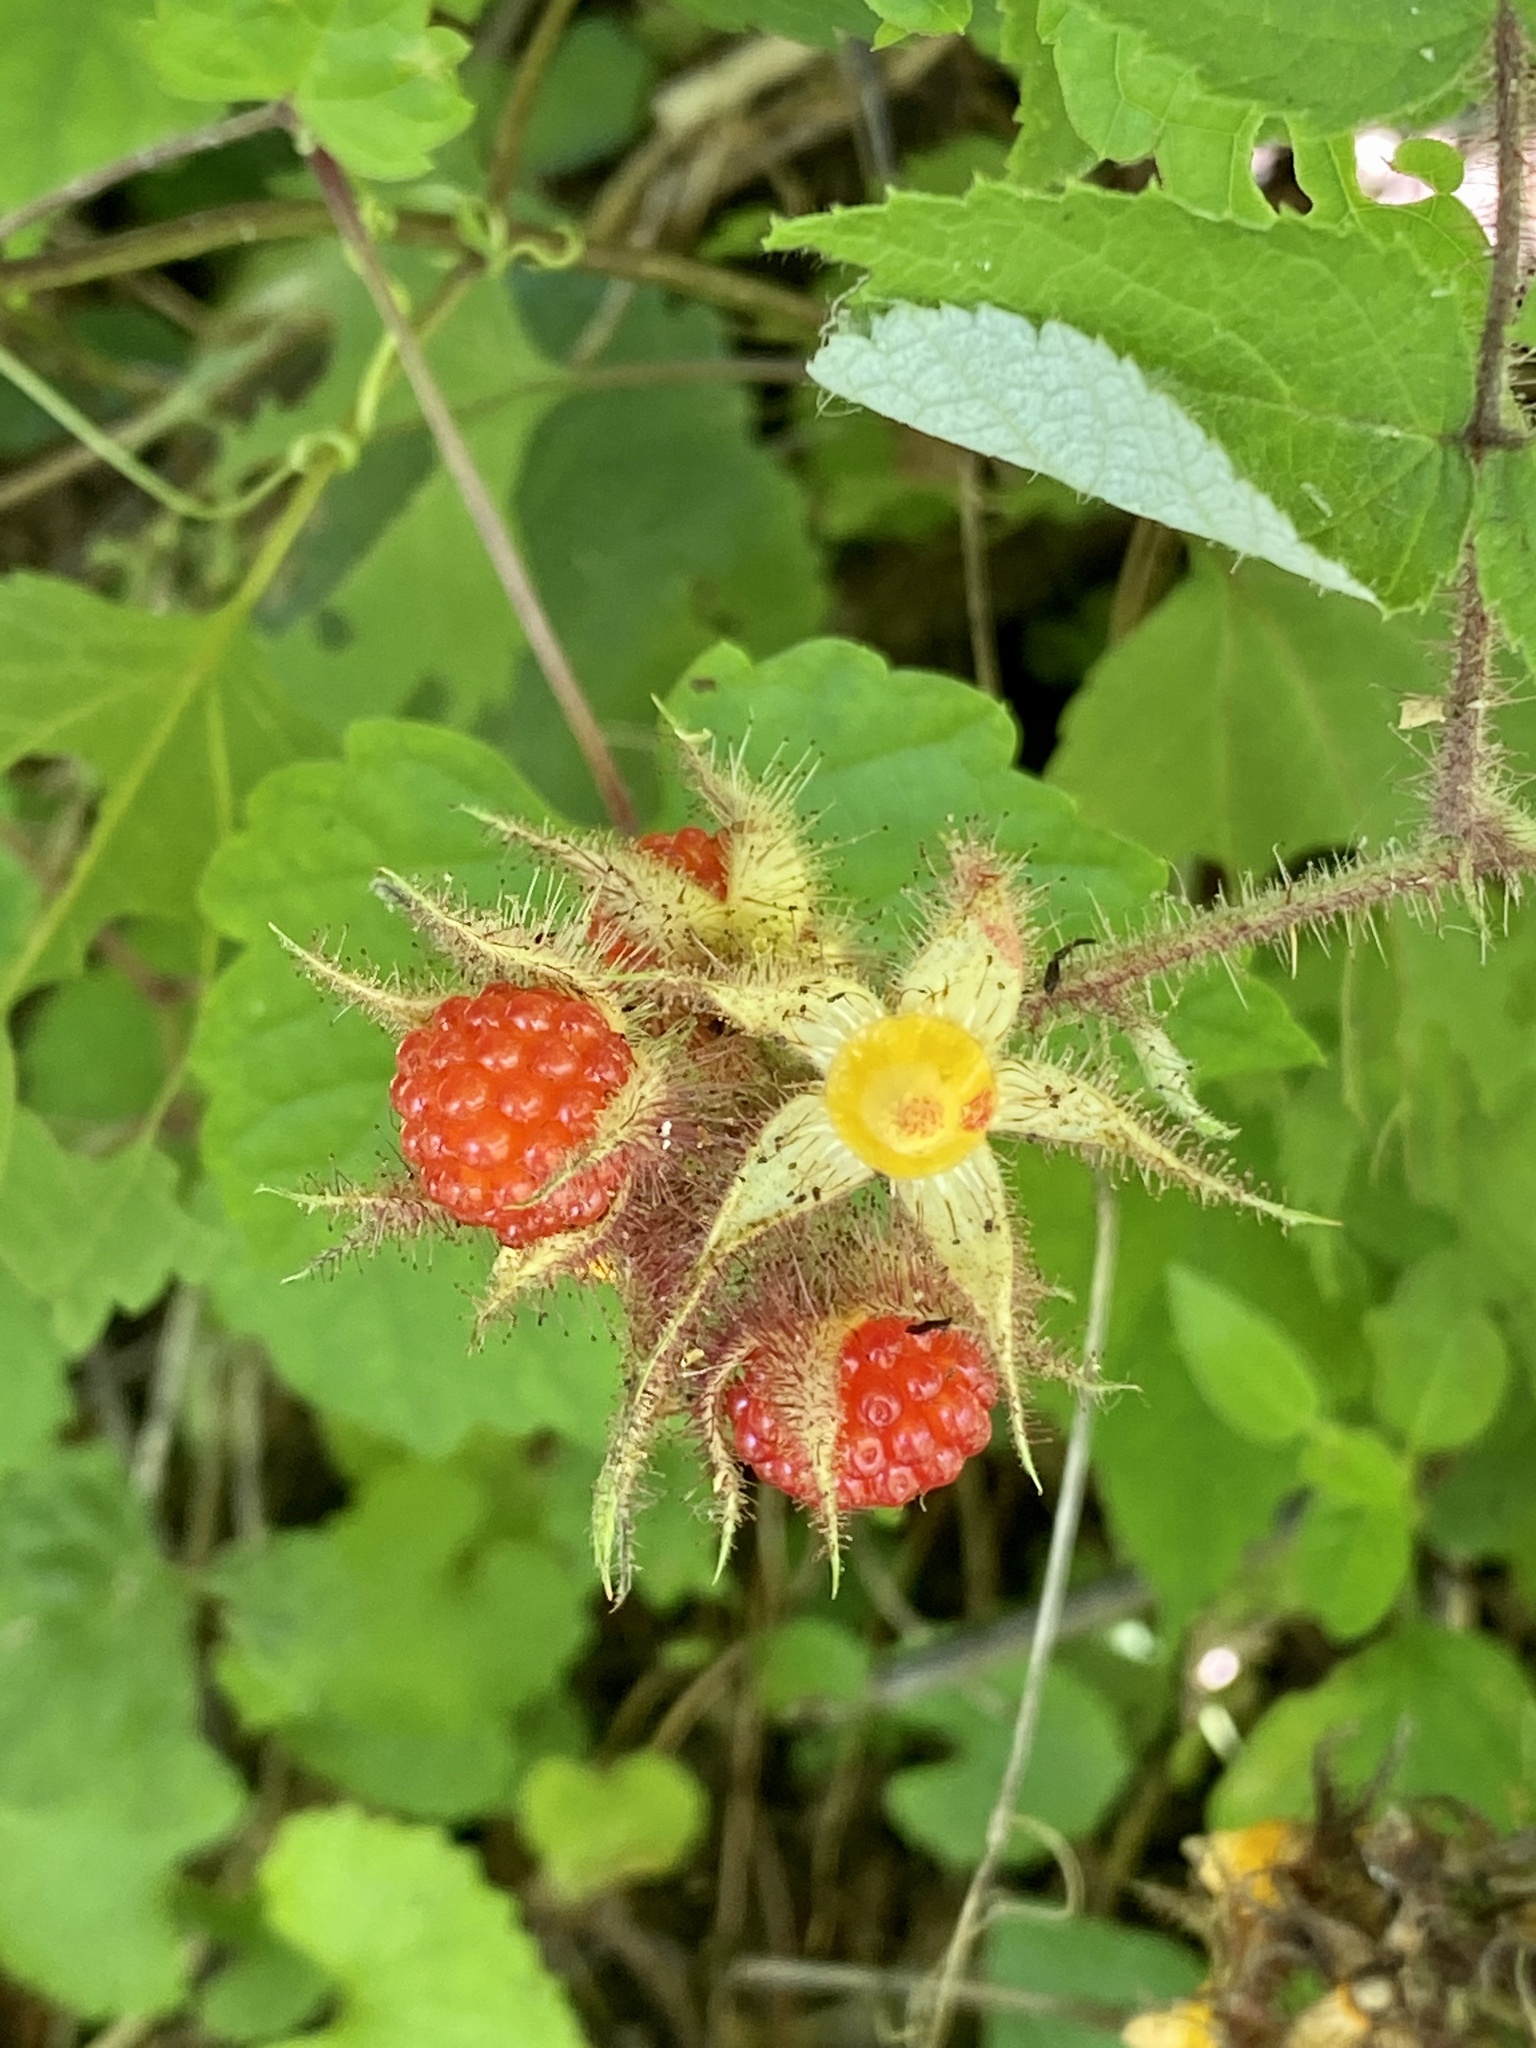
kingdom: Plantae
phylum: Tracheophyta
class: Magnoliopsida
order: Rosales
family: Rosaceae
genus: Rubus
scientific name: Rubus phoenicolasius
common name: Japanese wineberry
